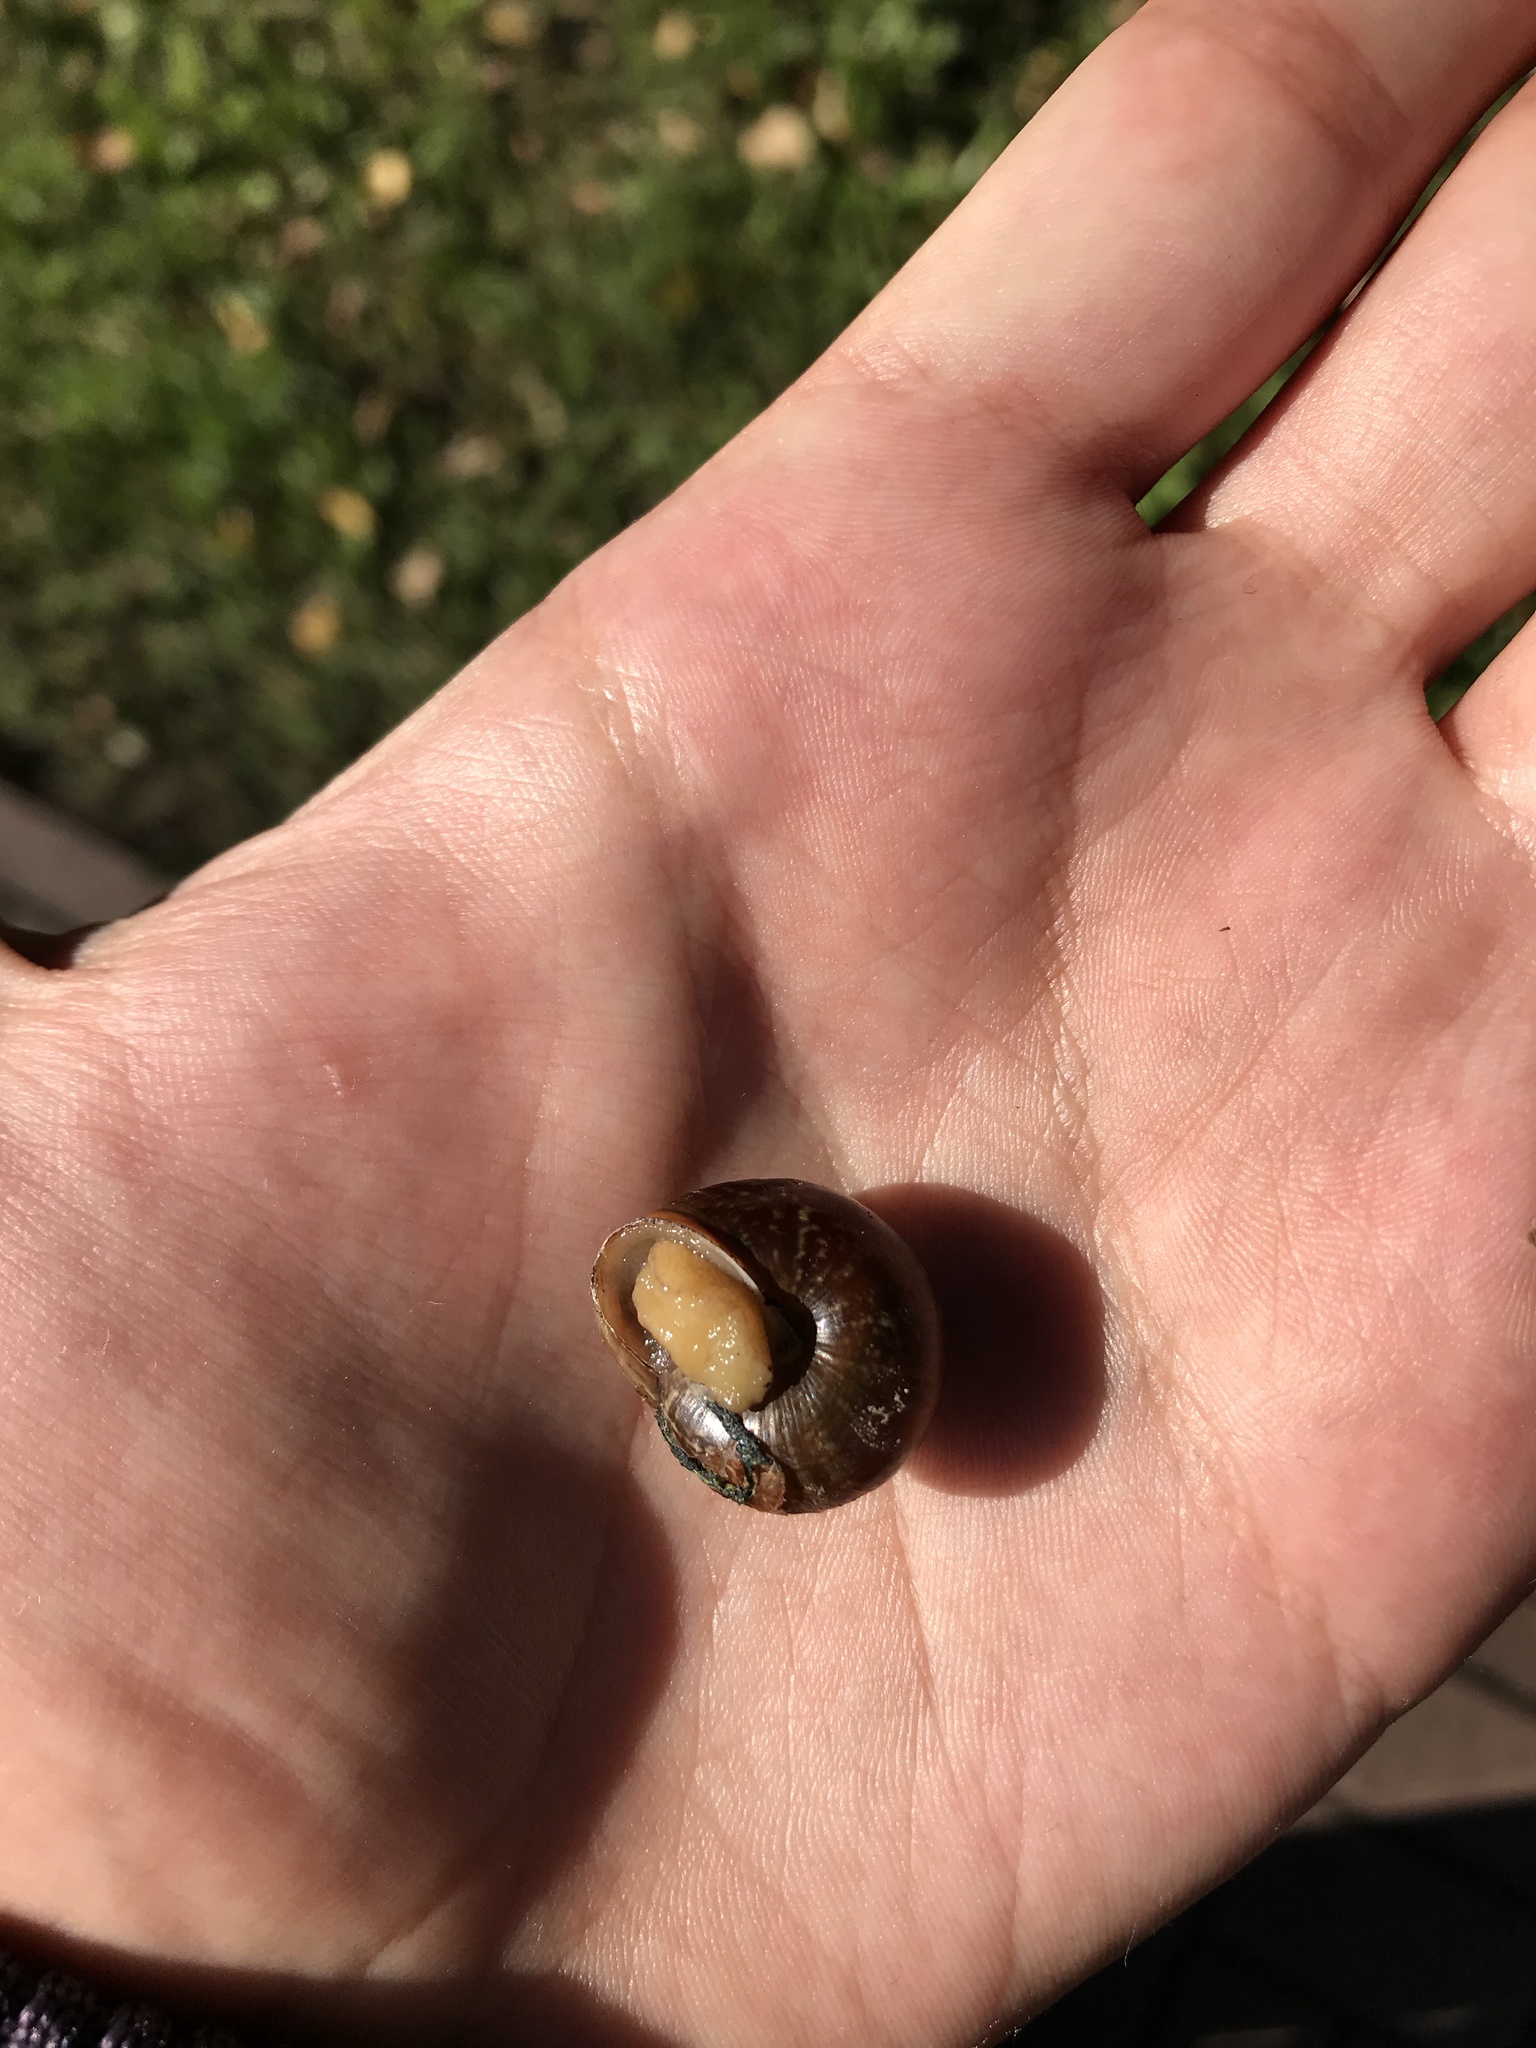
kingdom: Animalia
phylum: Mollusca
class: Gastropoda
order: Stylommatophora
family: Camaenidae
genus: Fruticicola
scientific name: Fruticicola fruticum
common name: Bush snail
